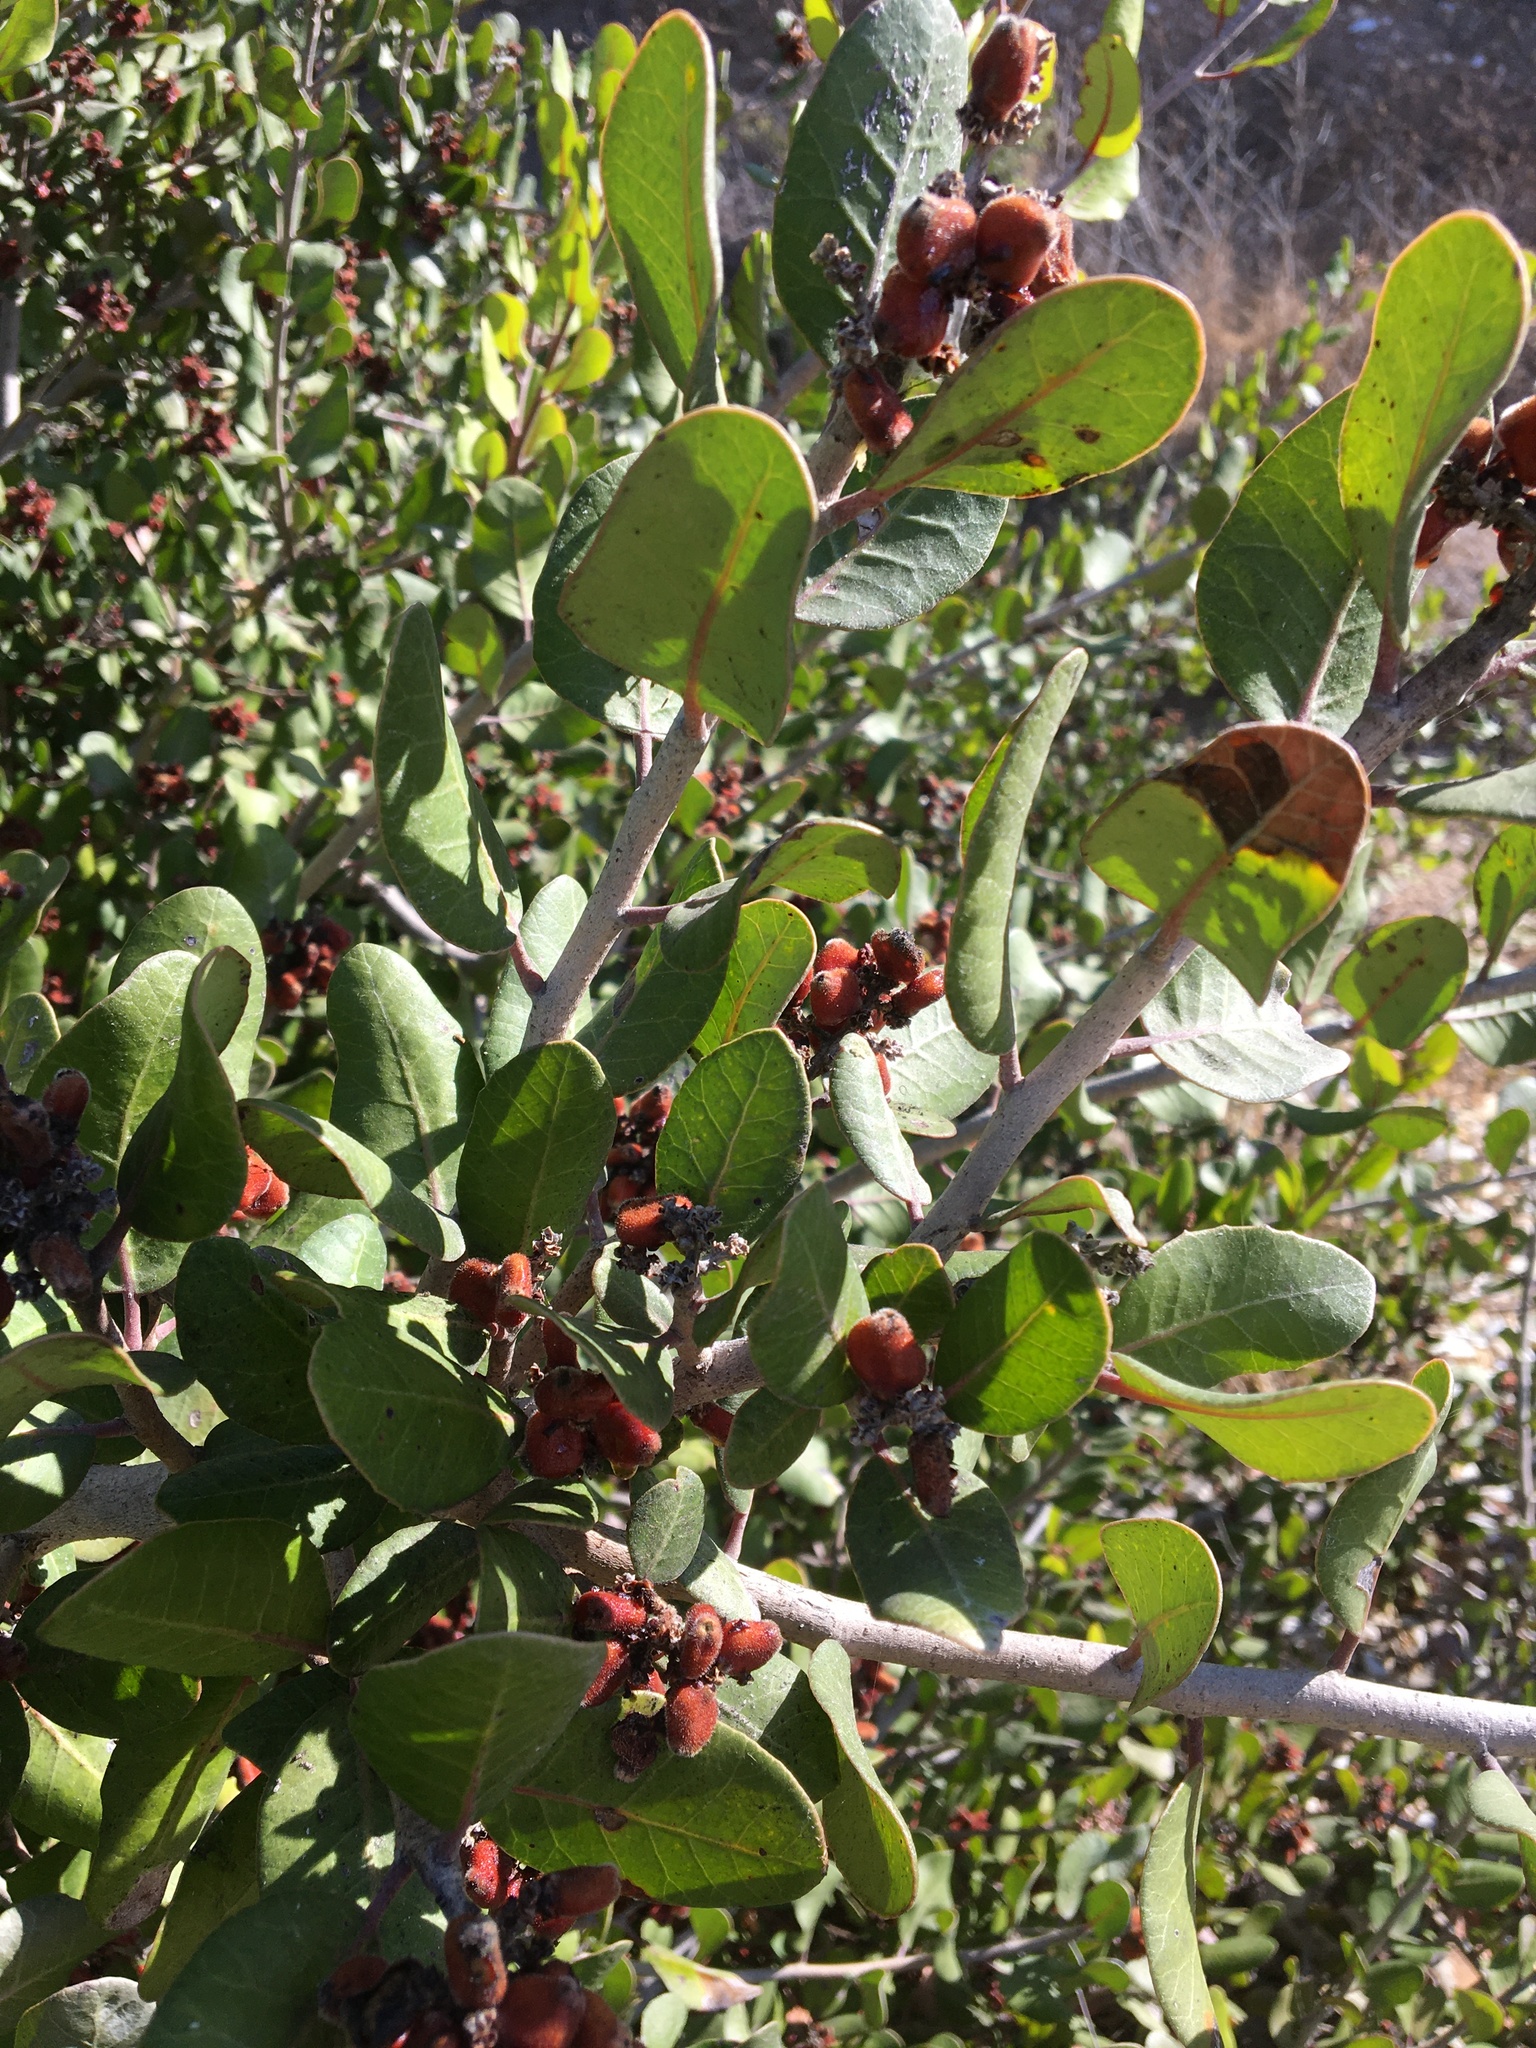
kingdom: Plantae
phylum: Tracheophyta
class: Magnoliopsida
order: Sapindales
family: Anacardiaceae
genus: Rhus
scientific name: Rhus integrifolia
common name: Lemonade sumac
